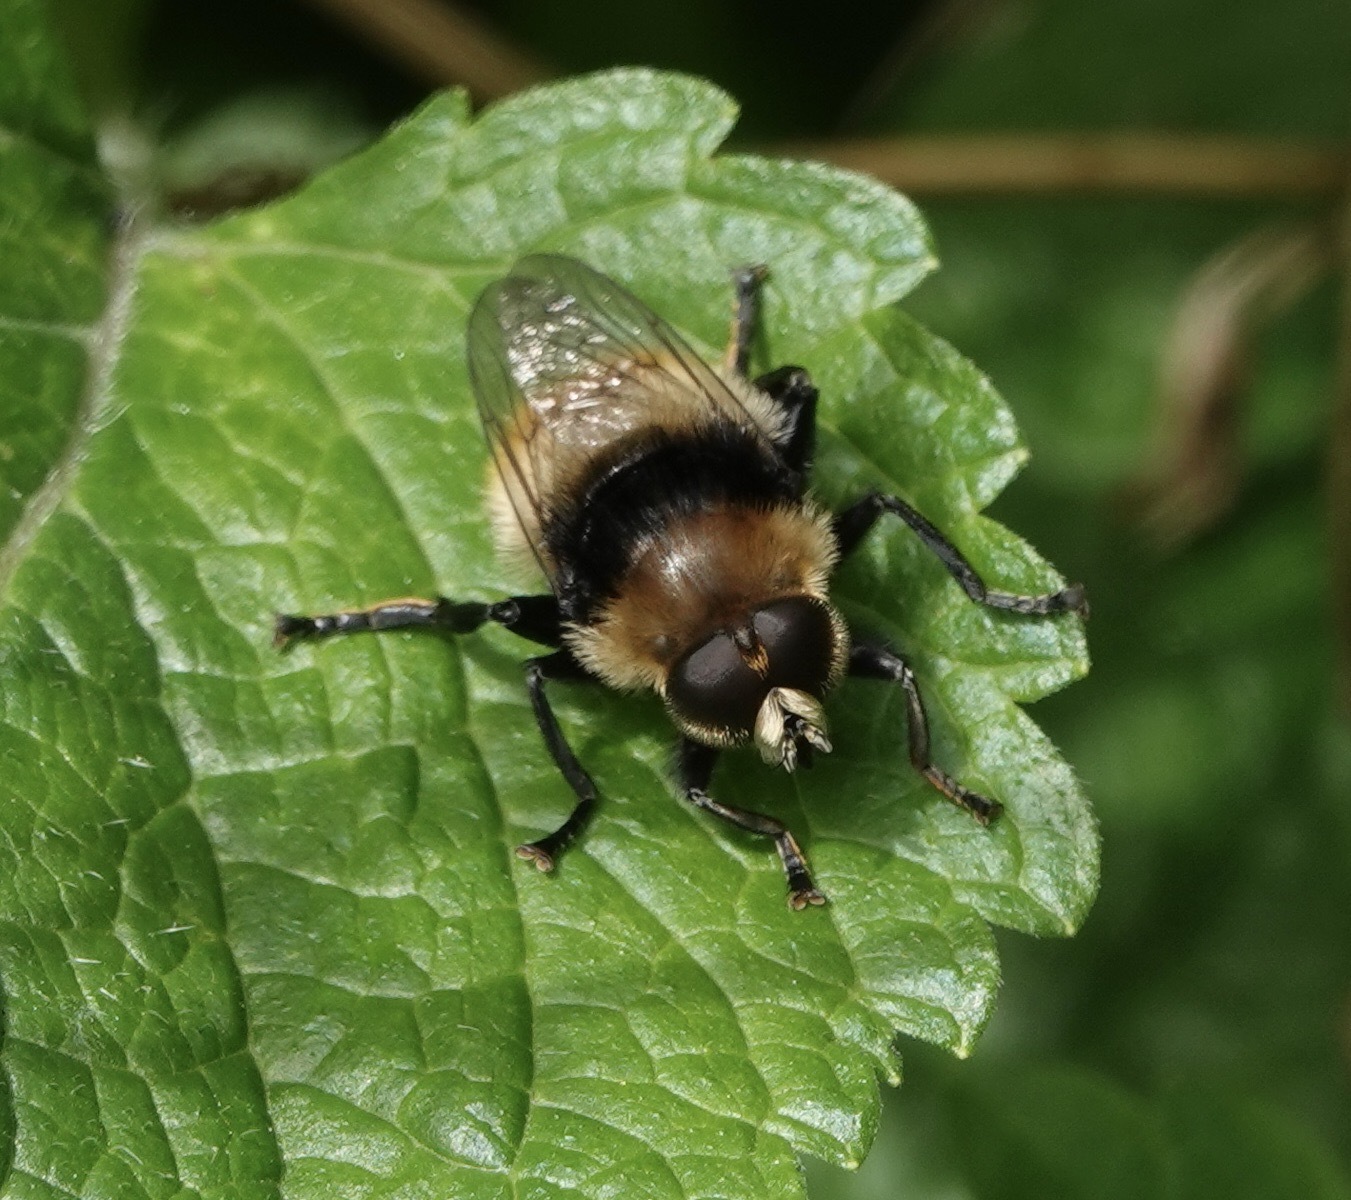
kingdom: Animalia
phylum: Arthropoda
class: Insecta
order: Diptera
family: Syrphidae
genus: Merodon
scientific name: Merodon equestris
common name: Greater bulb-fly
